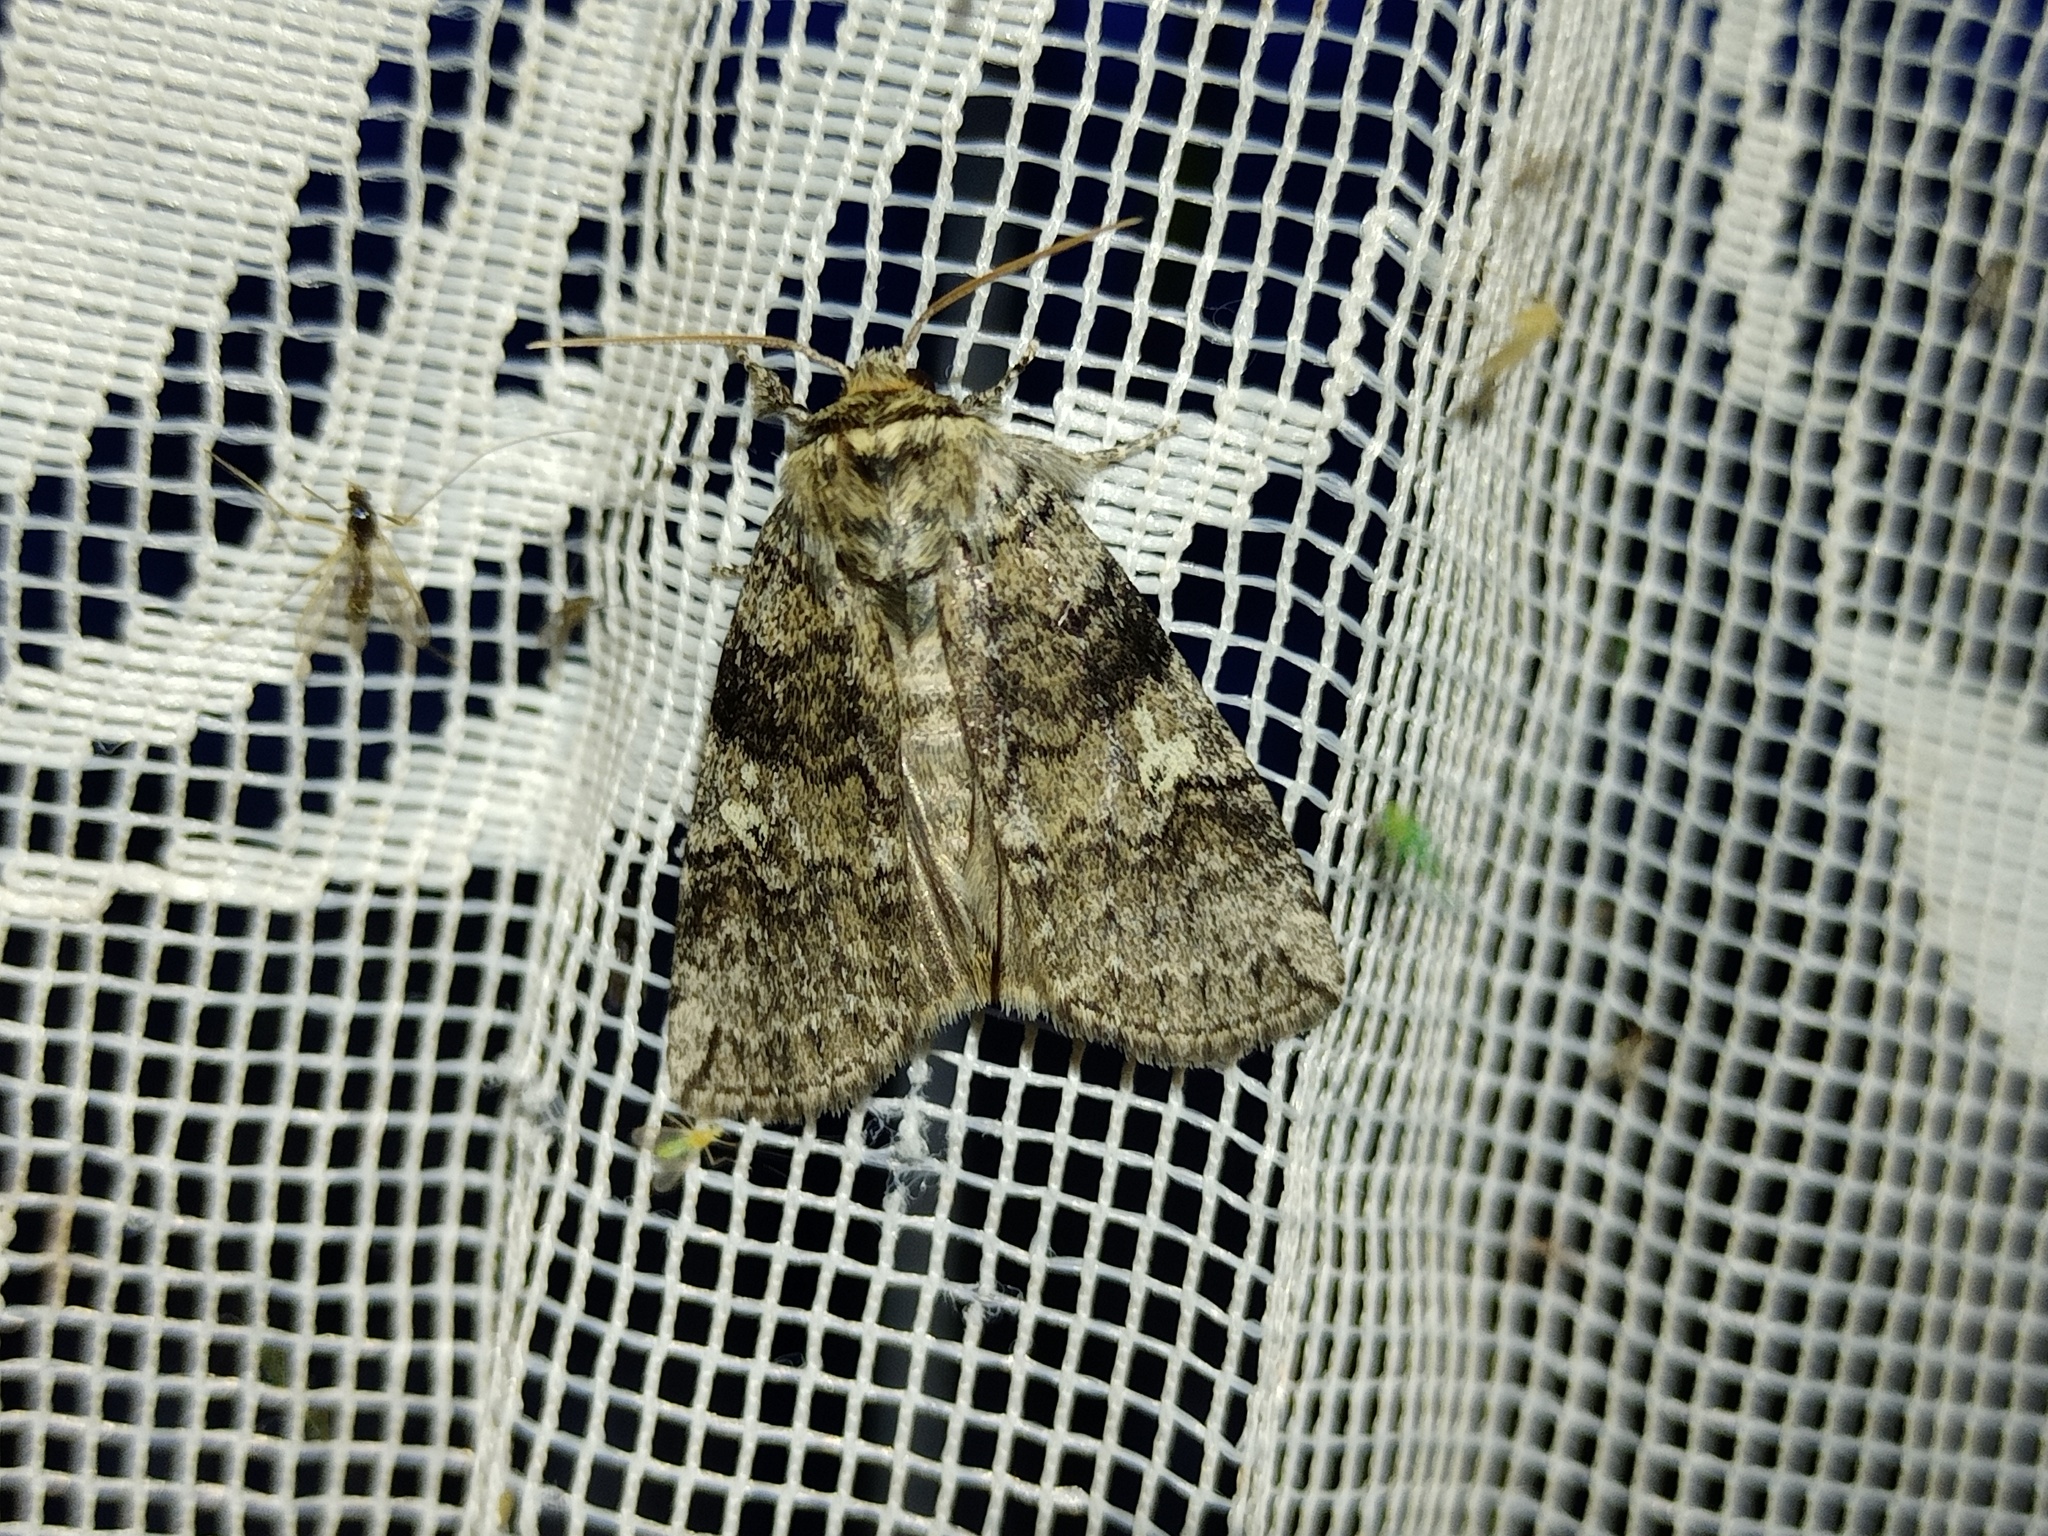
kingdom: Animalia
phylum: Arthropoda
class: Insecta
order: Lepidoptera
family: Drepanidae
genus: Tethea
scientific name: Tethea or
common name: Poplar lutestring
